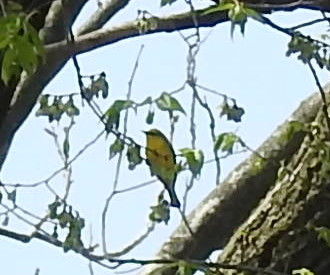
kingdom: Animalia
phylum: Chordata
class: Aves
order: Passeriformes
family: Parulidae
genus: Vermivora
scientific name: Vermivora cyanoptera
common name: Blue-winged warbler
